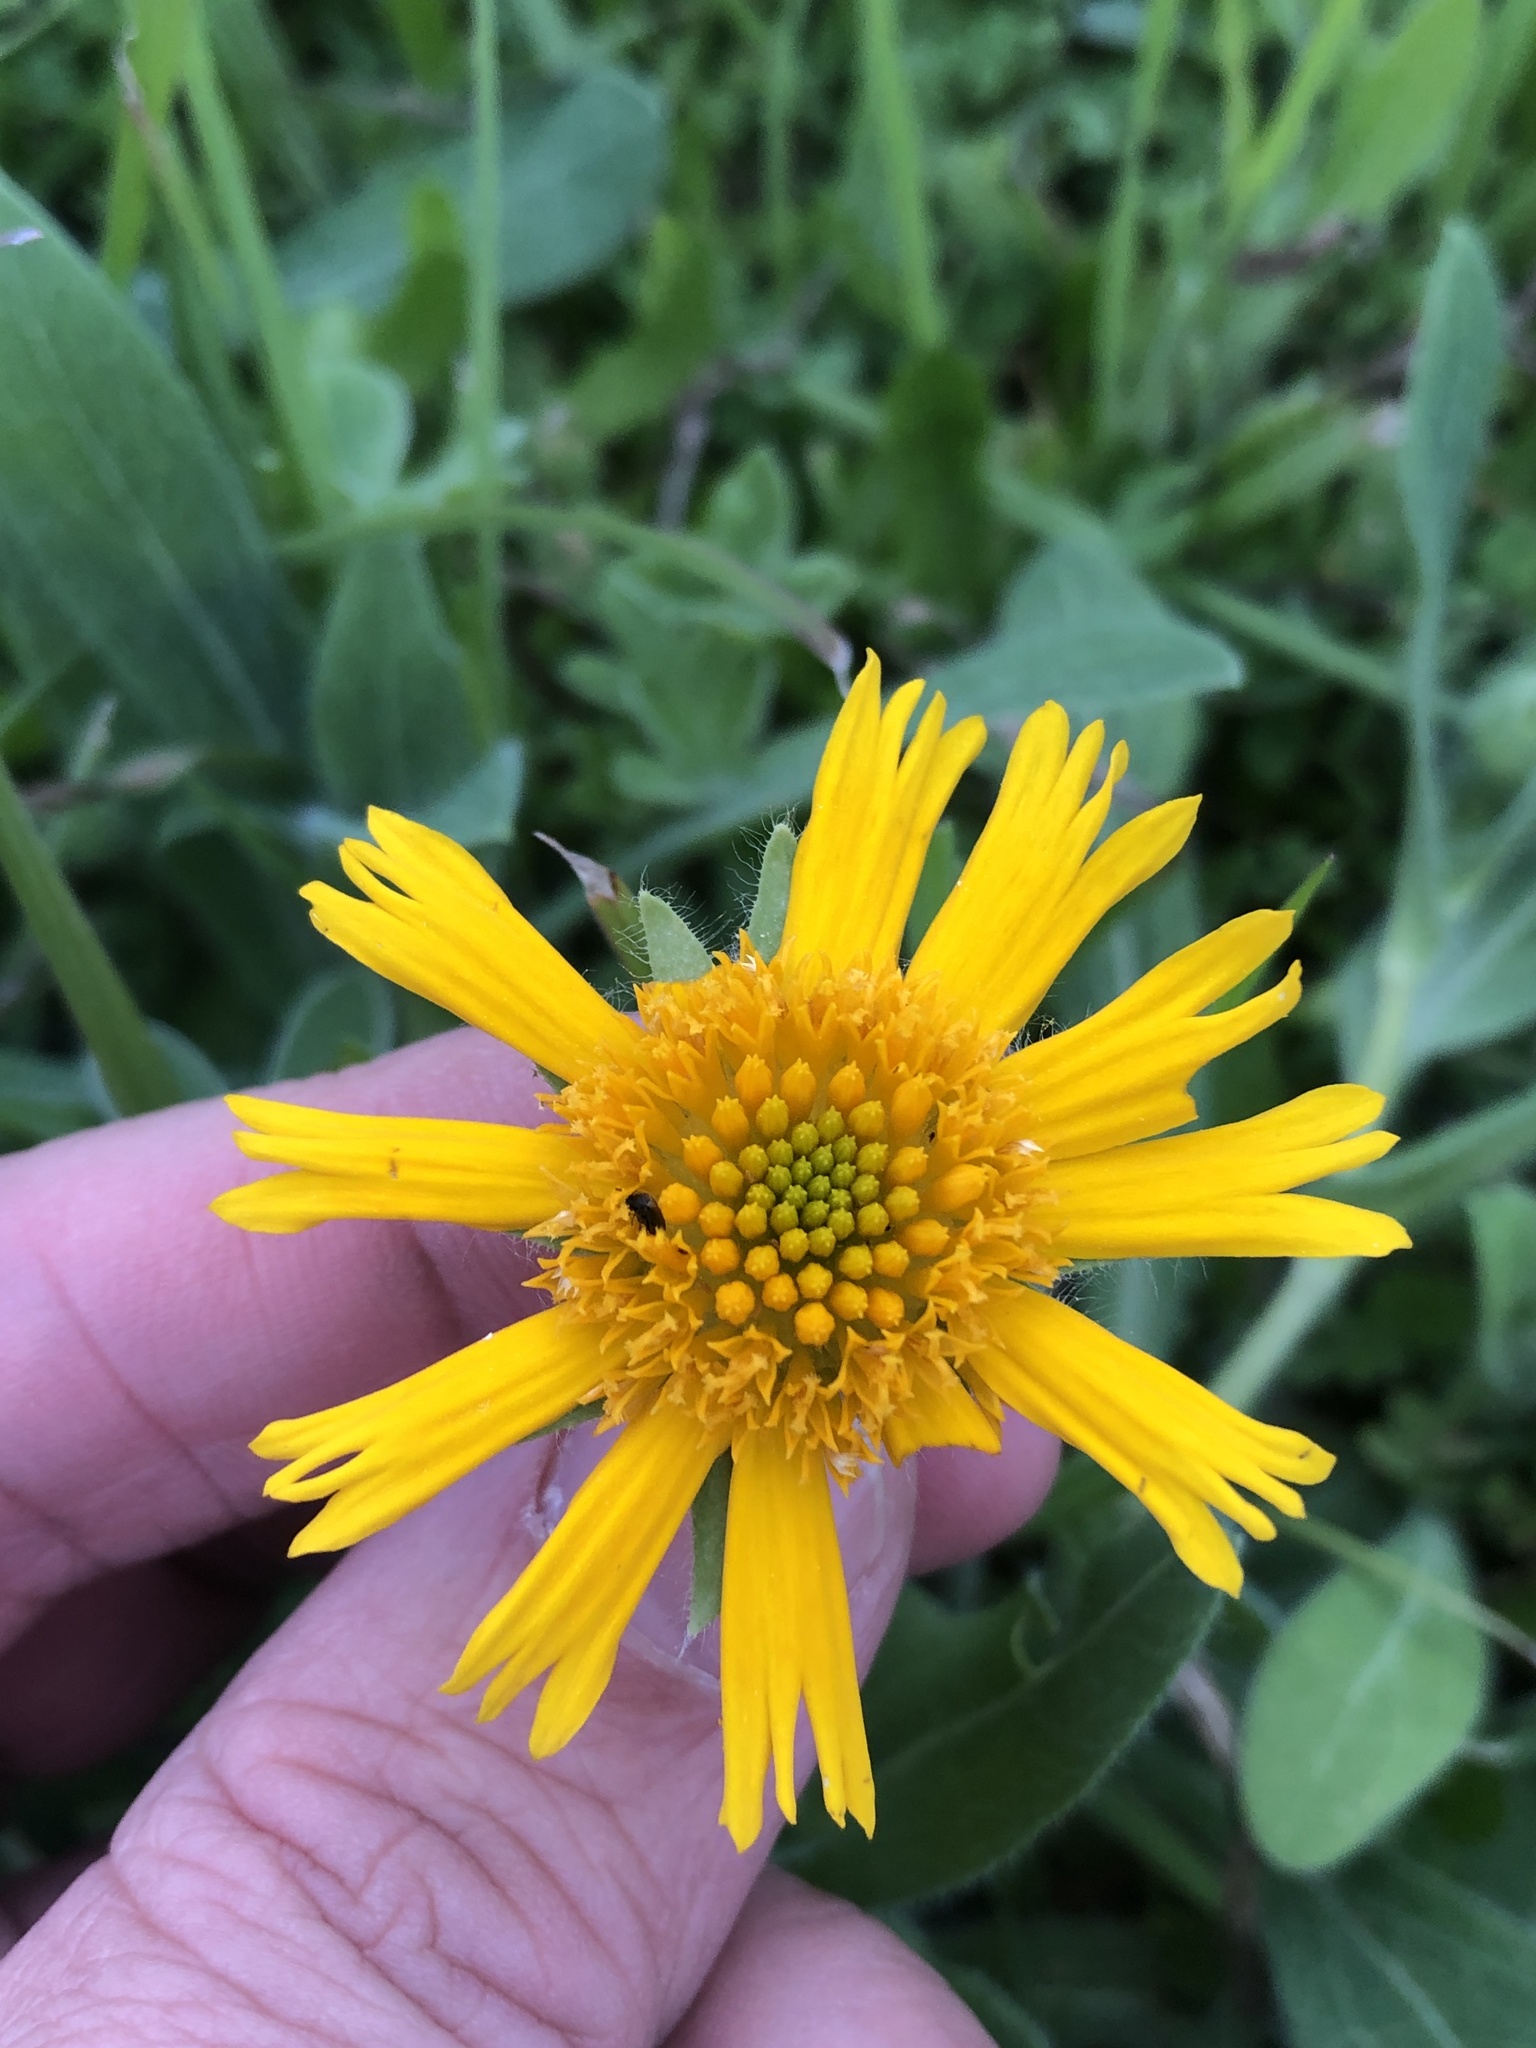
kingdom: Plantae
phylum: Tracheophyta
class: Magnoliopsida
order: Asterales
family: Asteraceae
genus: Amblyolepis
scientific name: Amblyolepis setigera
